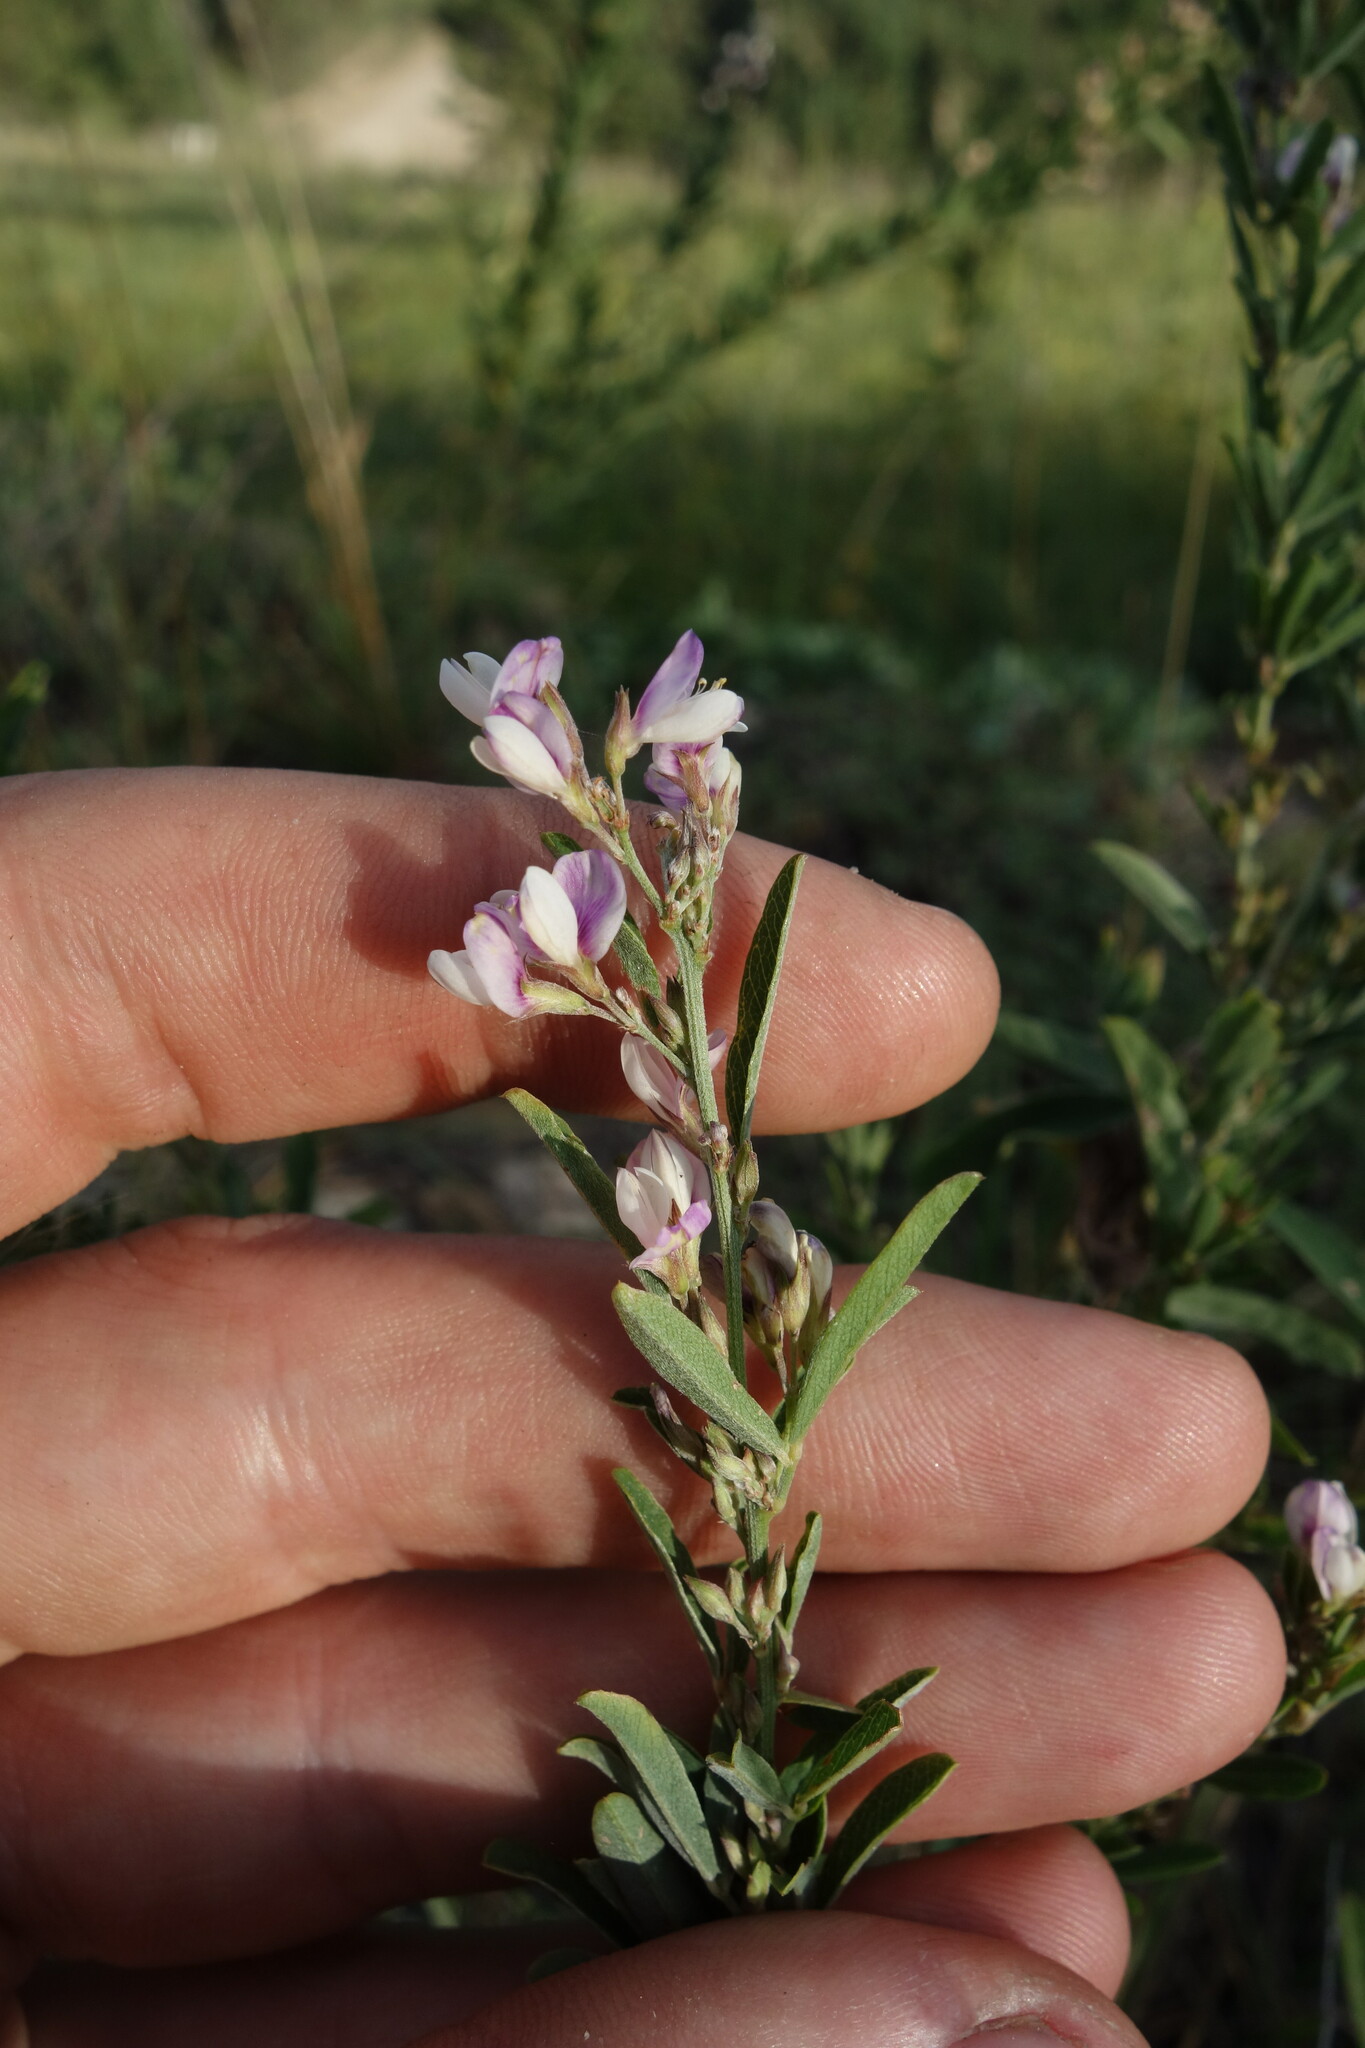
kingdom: Plantae
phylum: Tracheophyta
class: Magnoliopsida
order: Fabales
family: Fabaceae
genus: Lespedeza
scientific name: Lespedeza juncea
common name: Siberian lespedeza
